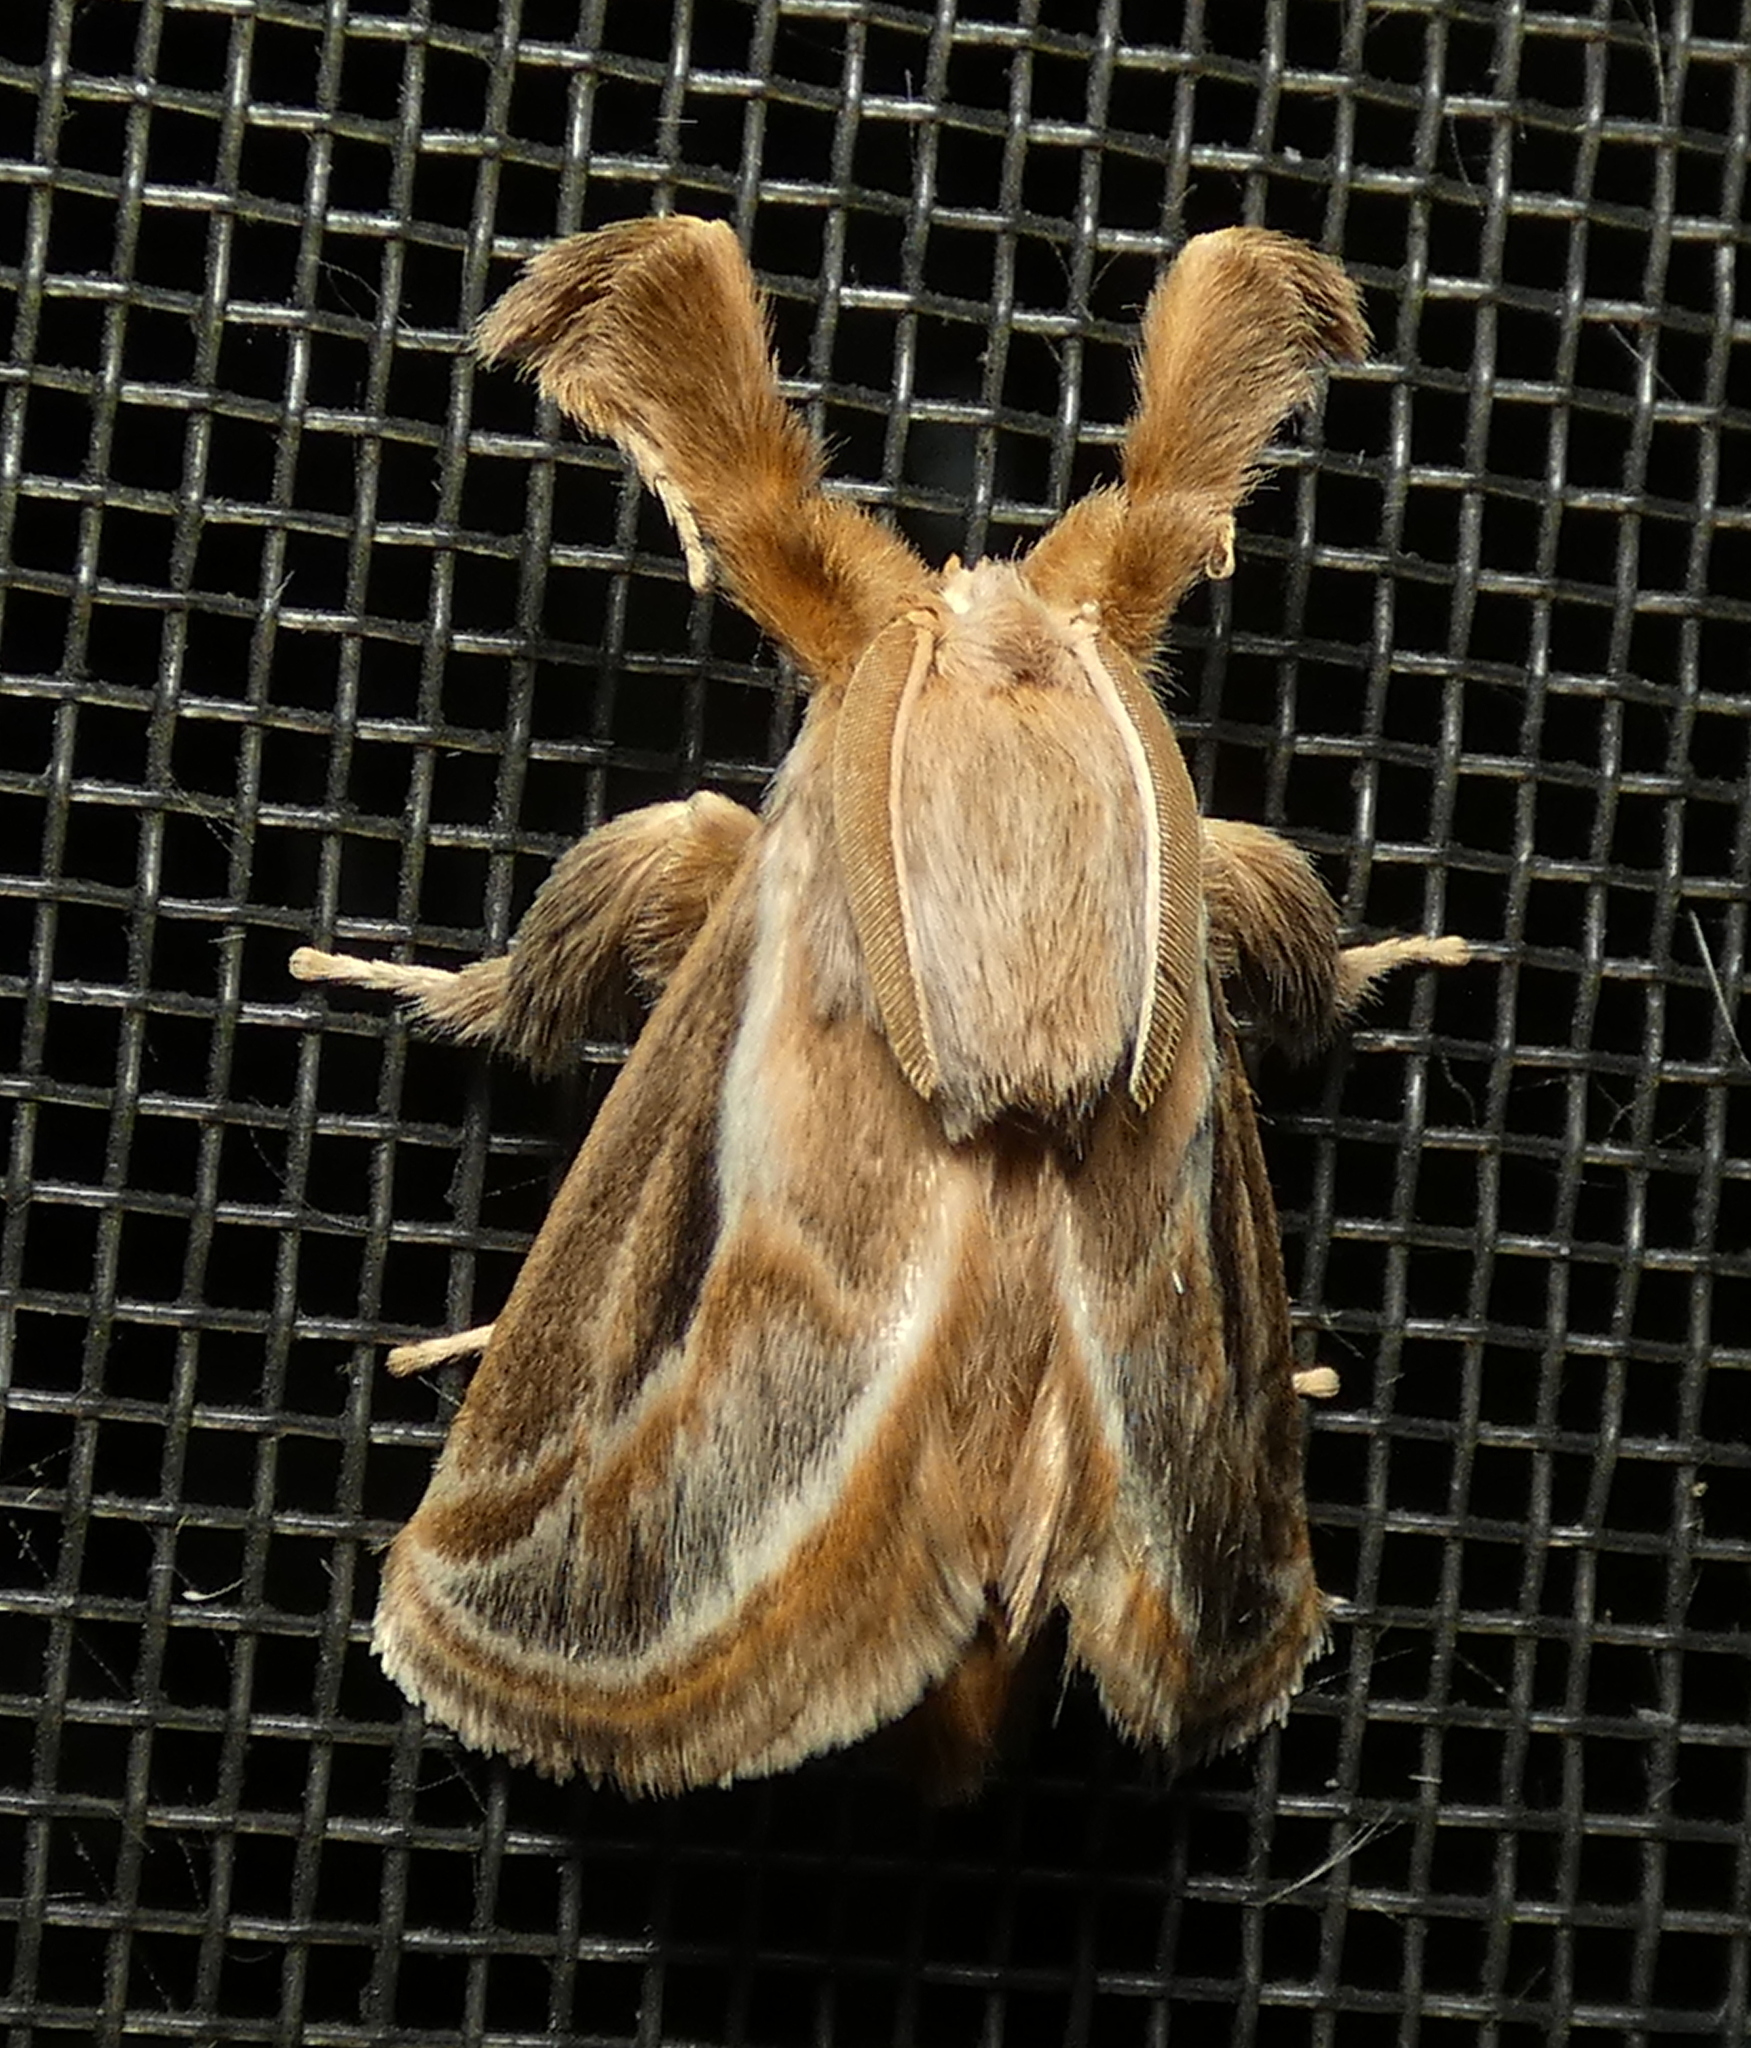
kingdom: Animalia
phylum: Arthropoda
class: Insecta
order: Lepidoptera
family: Limacodidae
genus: Perola
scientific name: Perola brumalis
